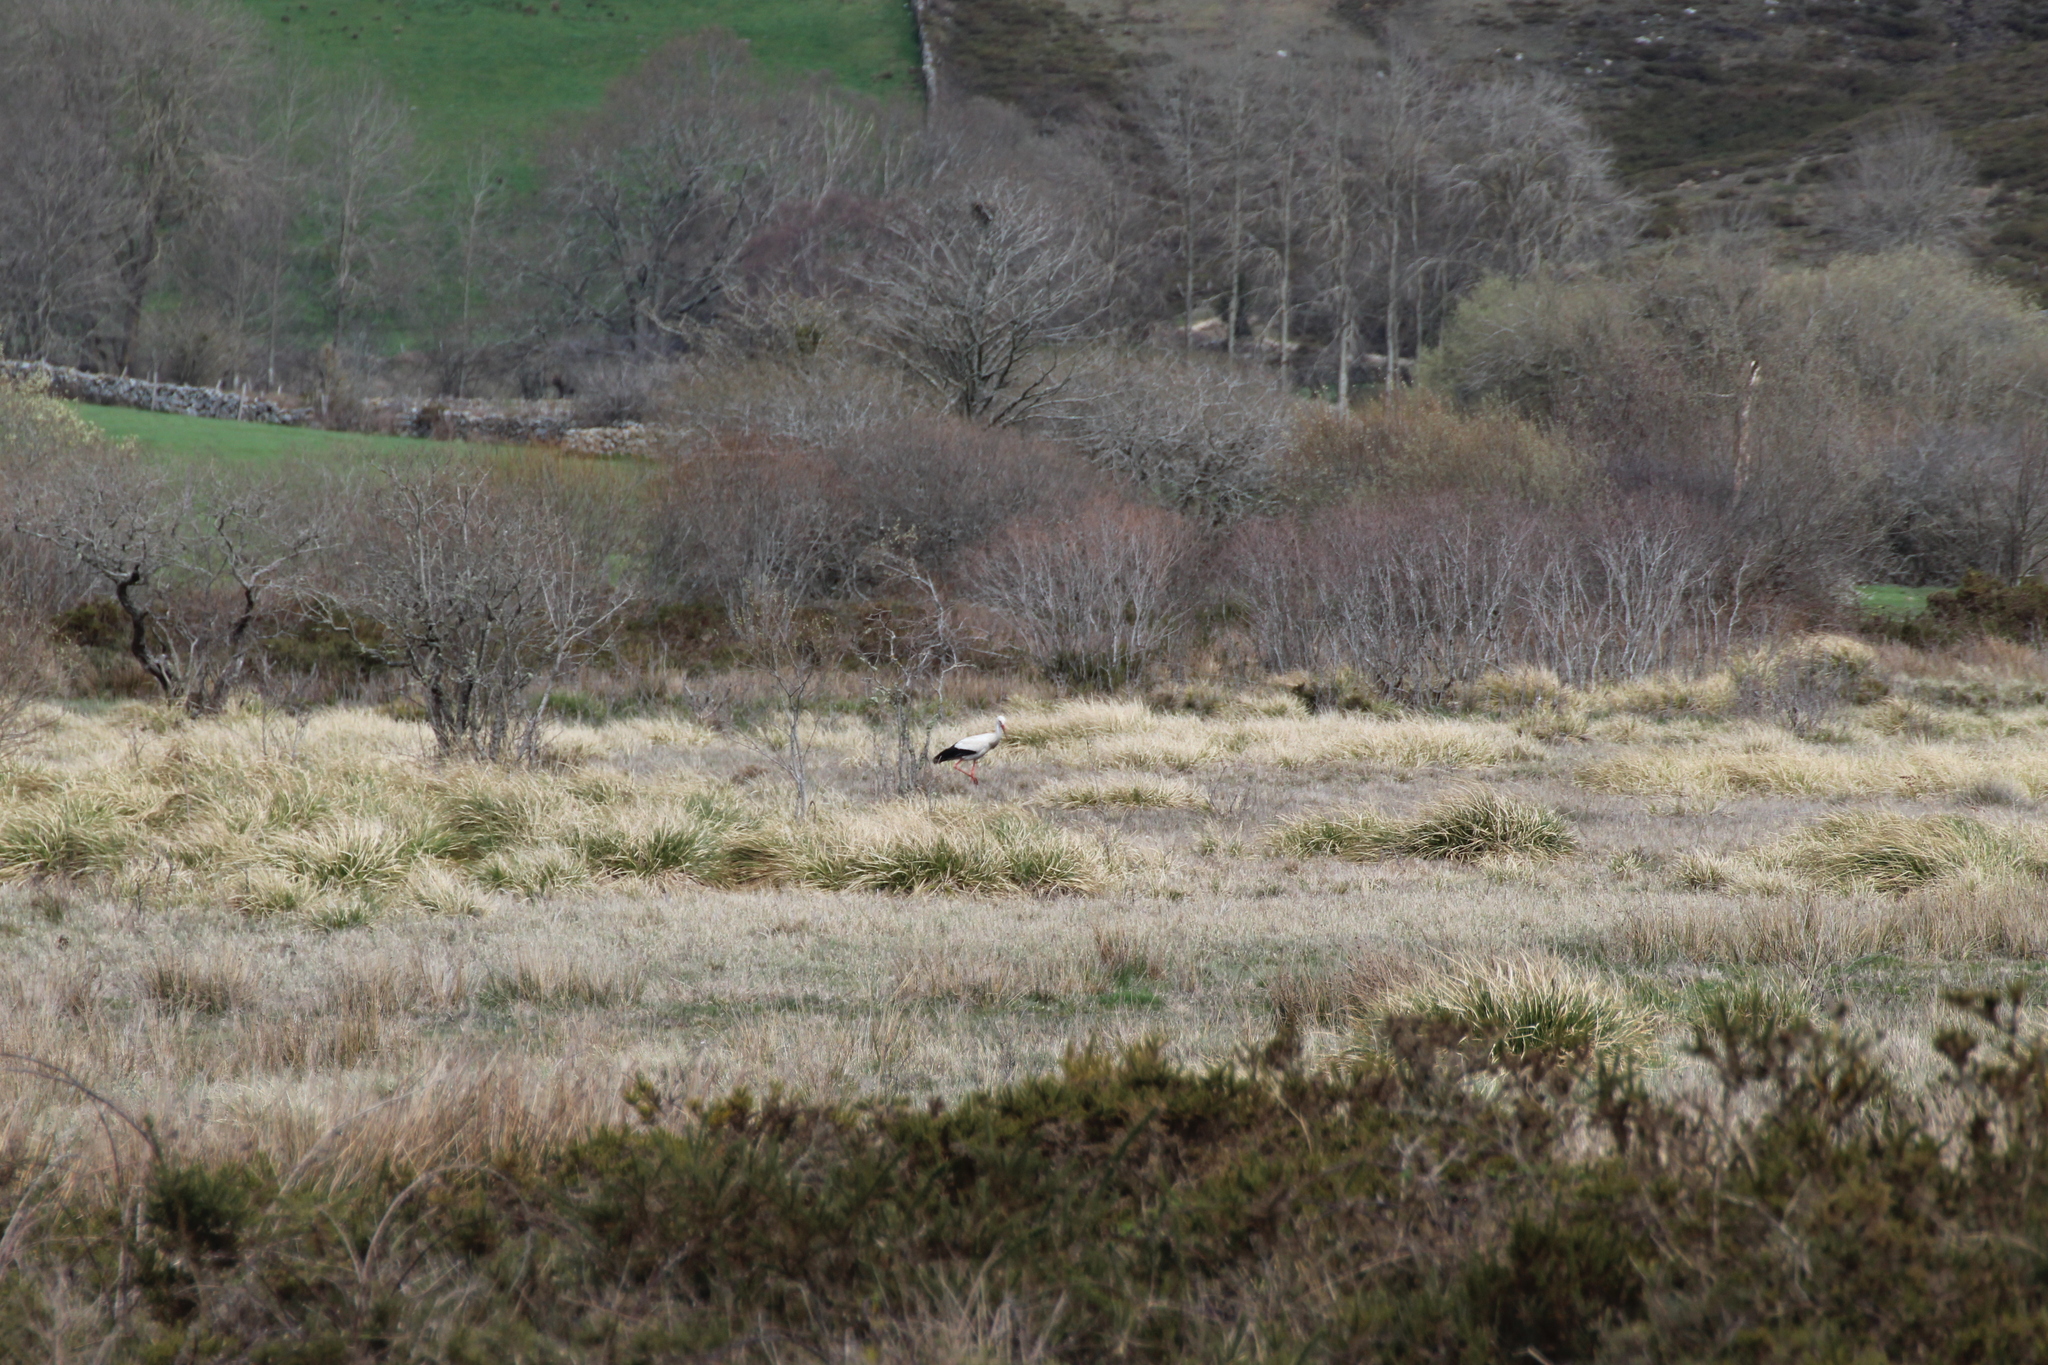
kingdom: Animalia
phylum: Chordata
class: Aves
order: Ciconiiformes
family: Ciconiidae
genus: Ciconia
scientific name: Ciconia ciconia
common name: White stork
